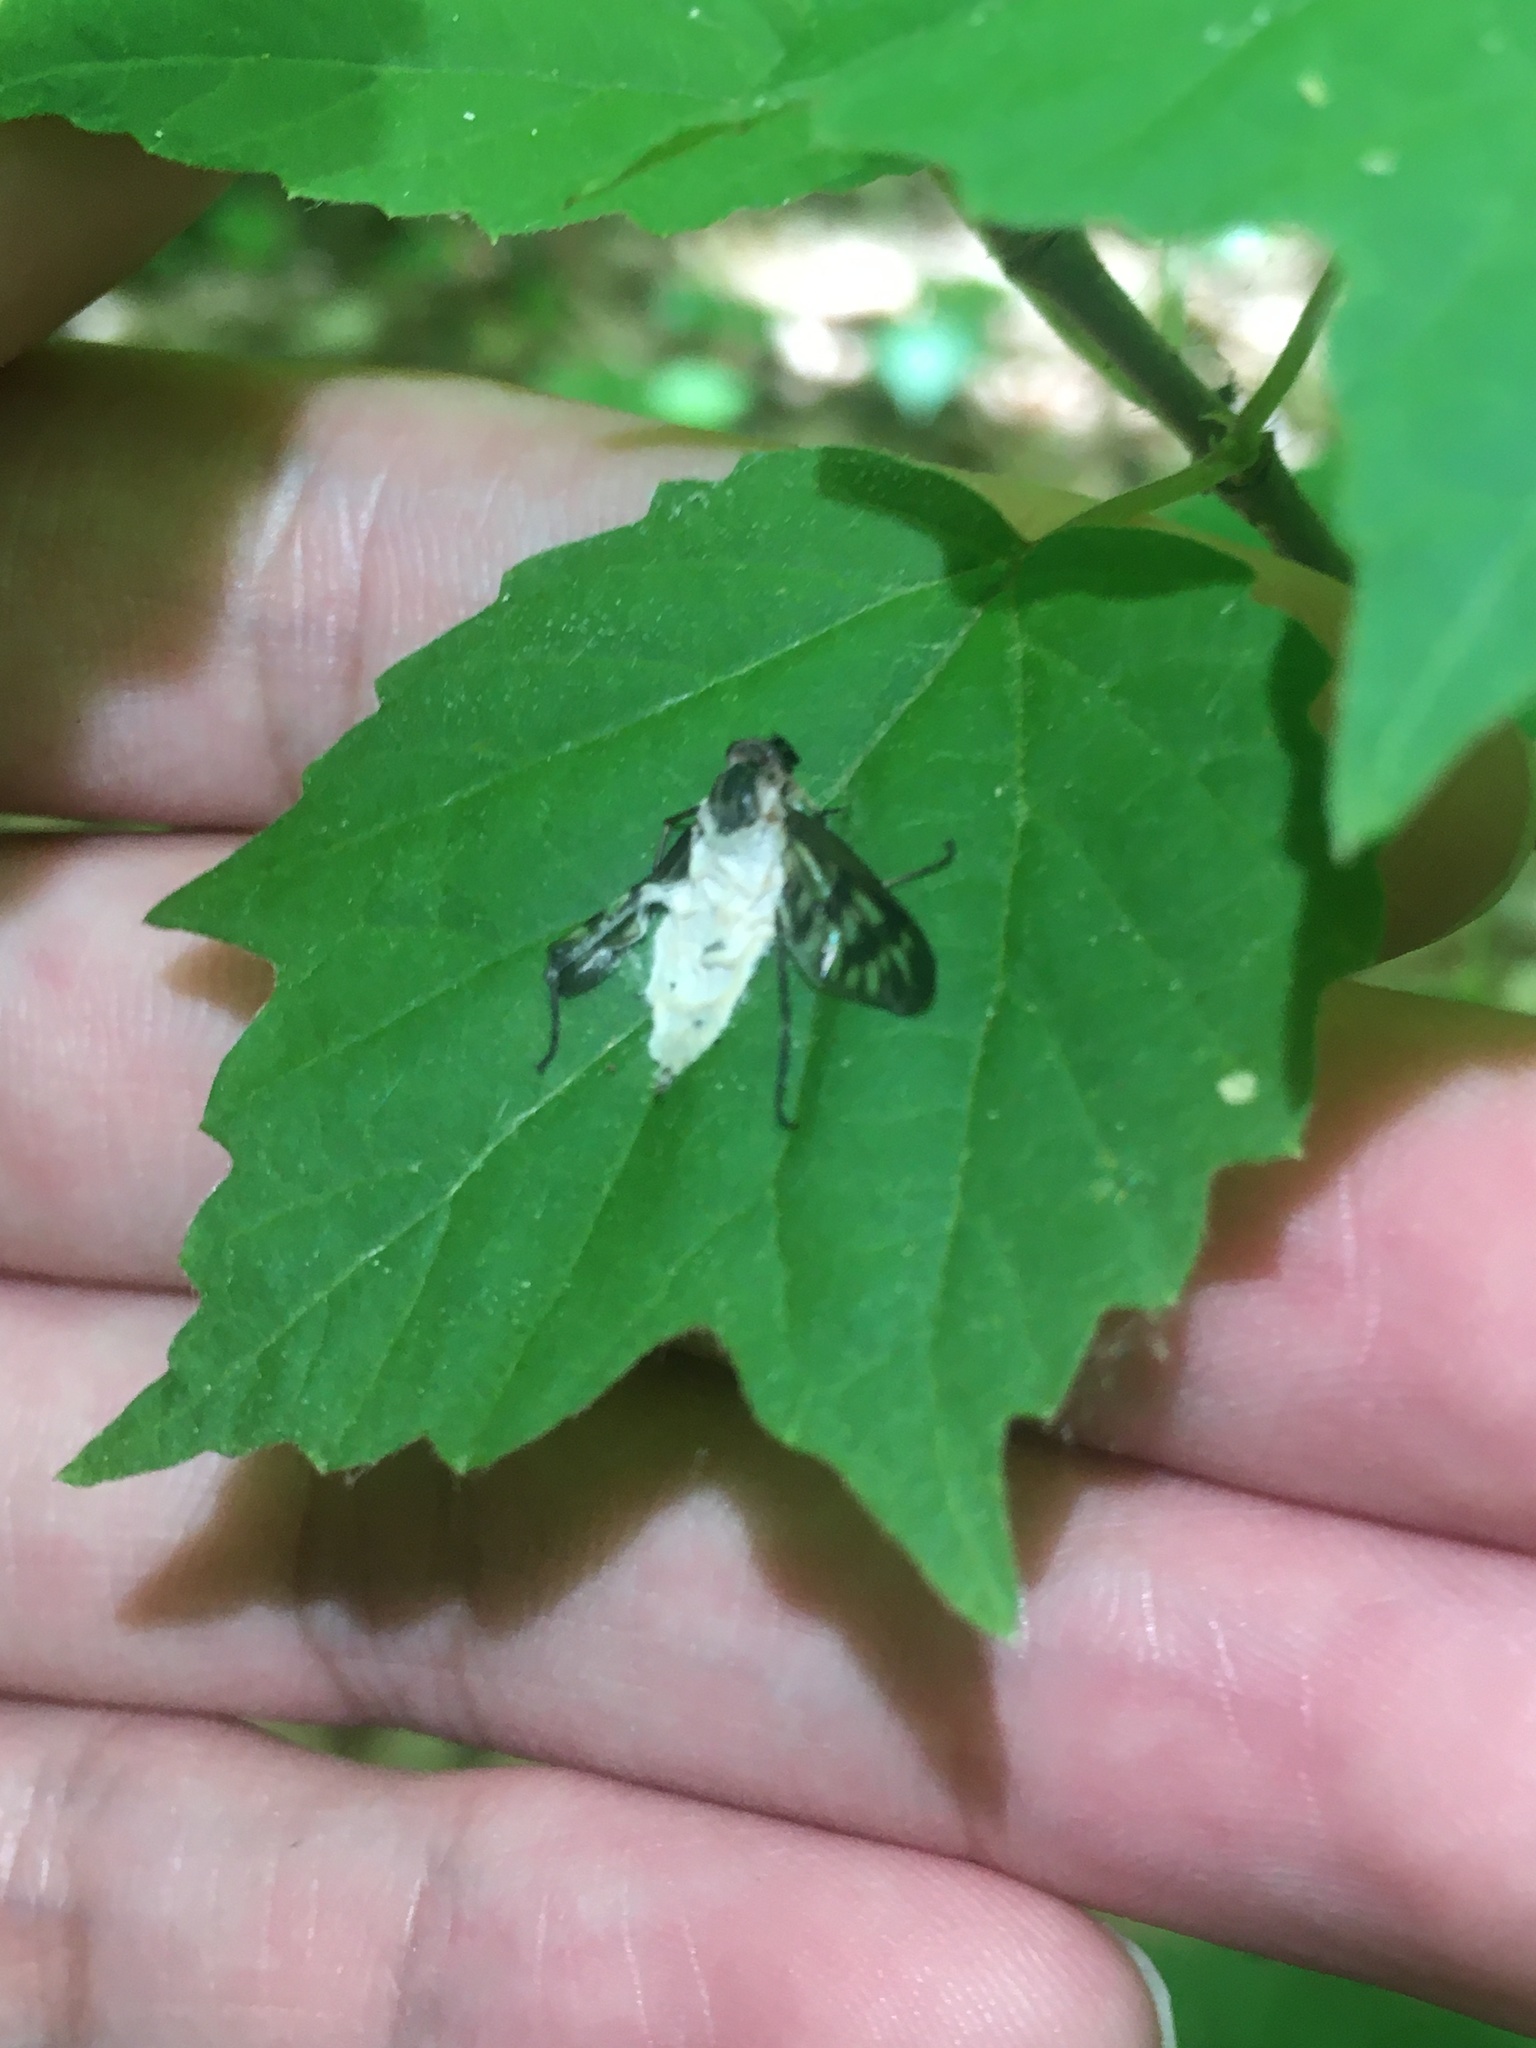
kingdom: Animalia
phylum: Arthropoda
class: Insecta
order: Diptera
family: Rhagionidae
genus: Rhagio
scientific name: Rhagio mystaceus
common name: Common snipe fly
